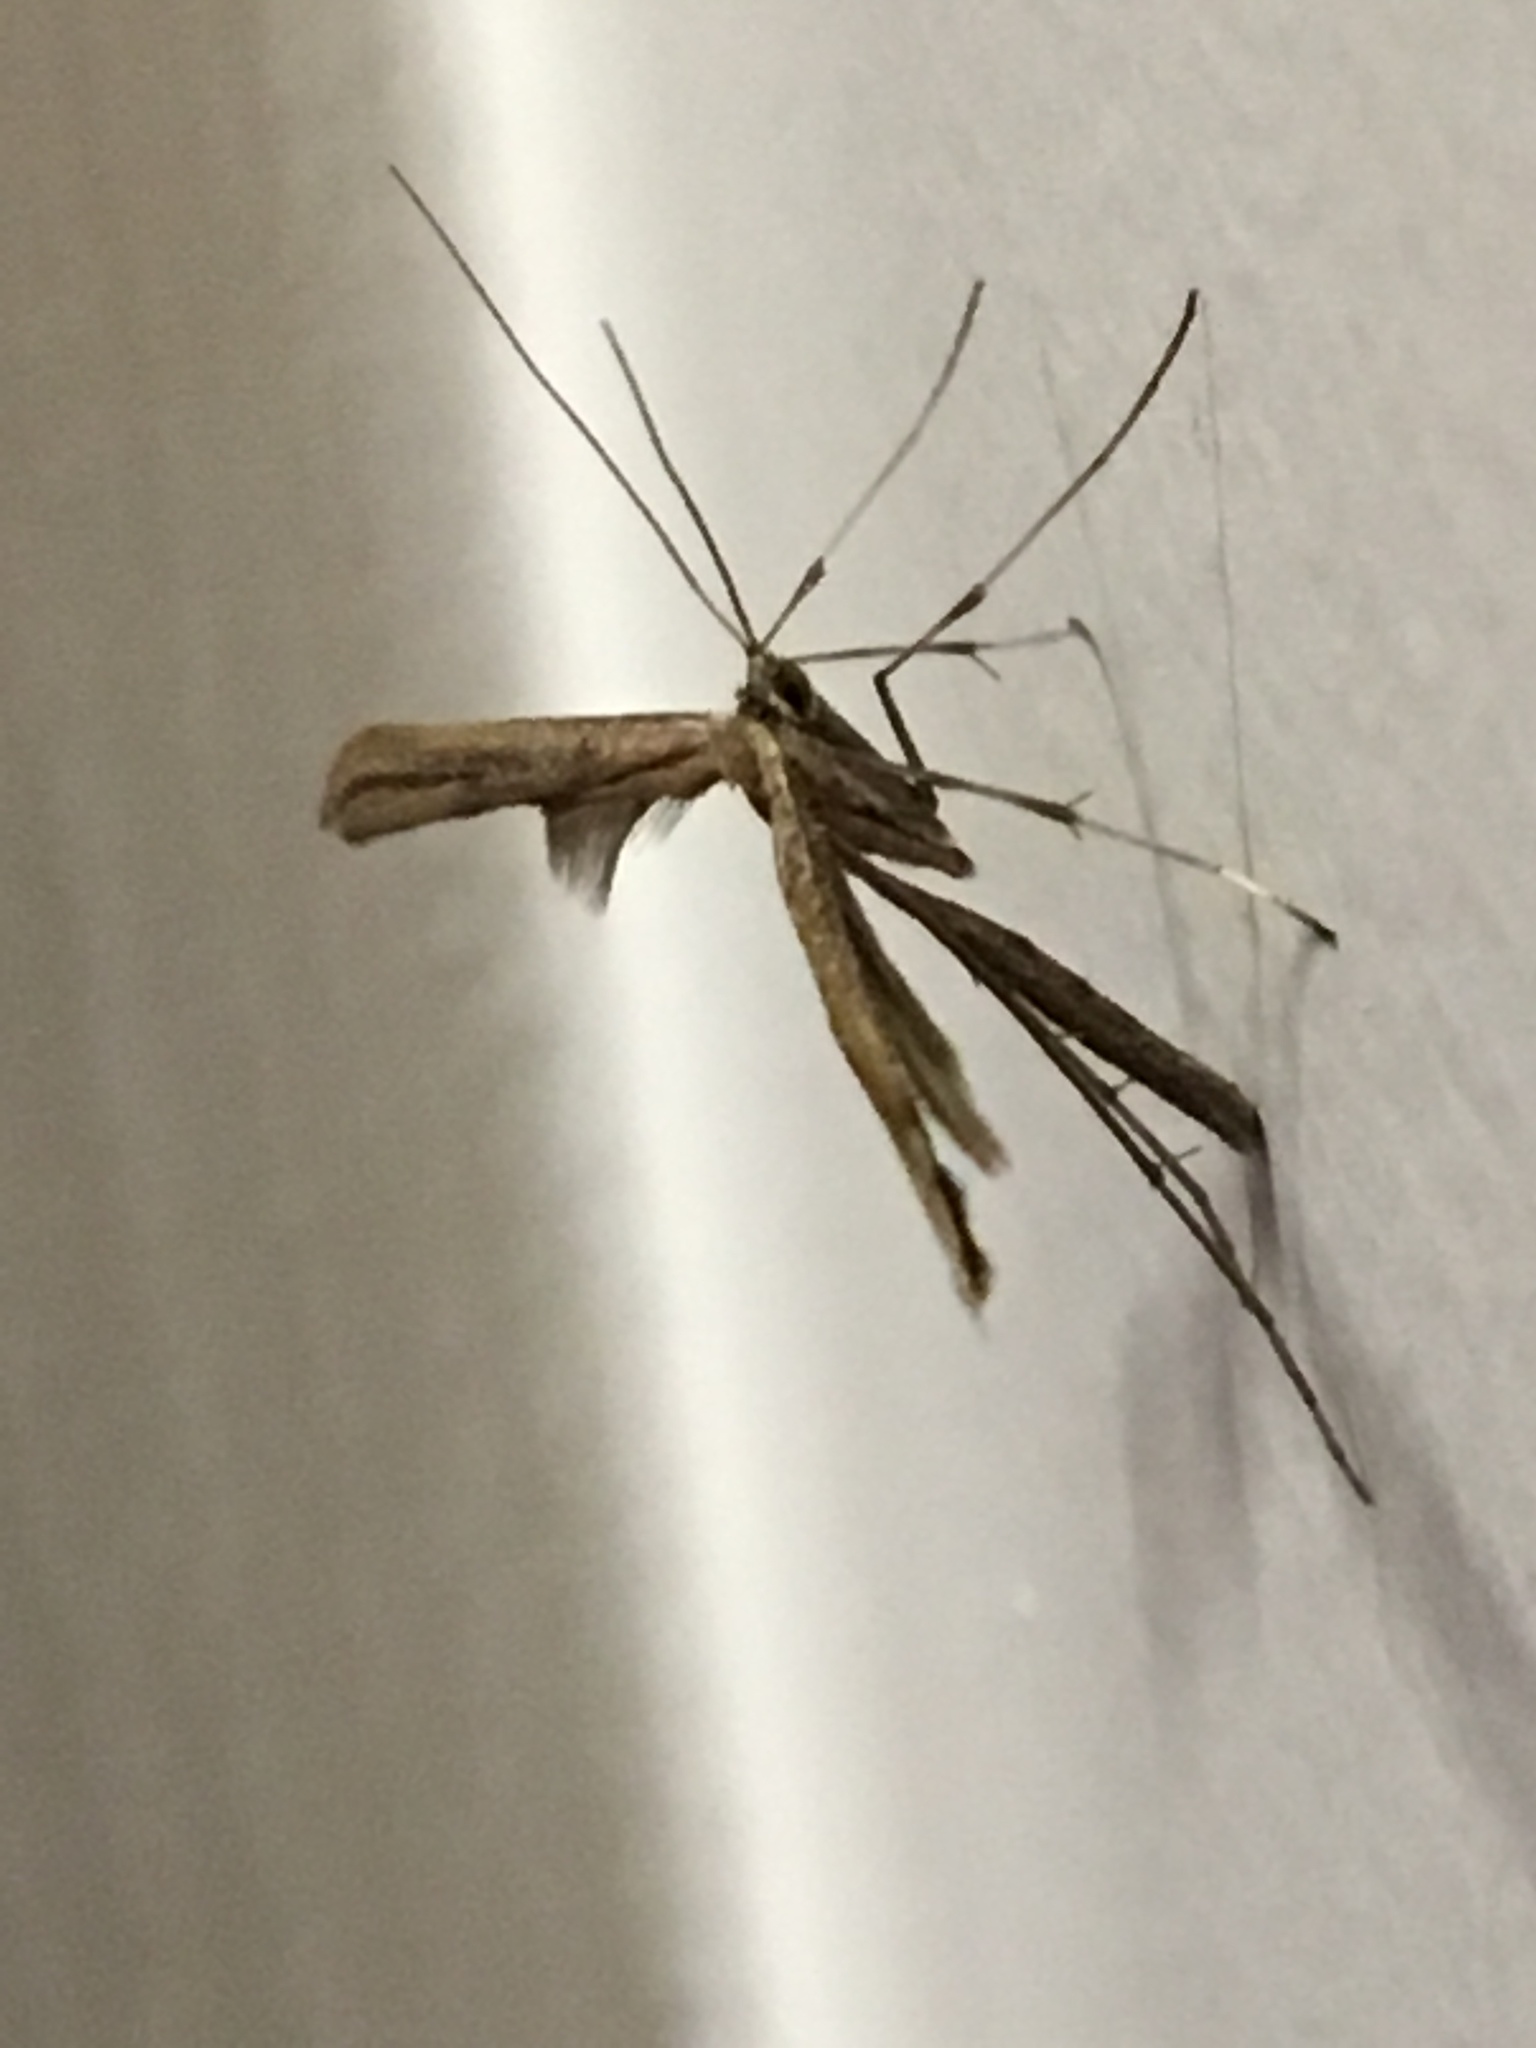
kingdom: Animalia
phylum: Arthropoda
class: Insecta
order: Lepidoptera
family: Pterophoridae
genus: Emmelina
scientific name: Emmelina monodactyla
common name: Common plume
